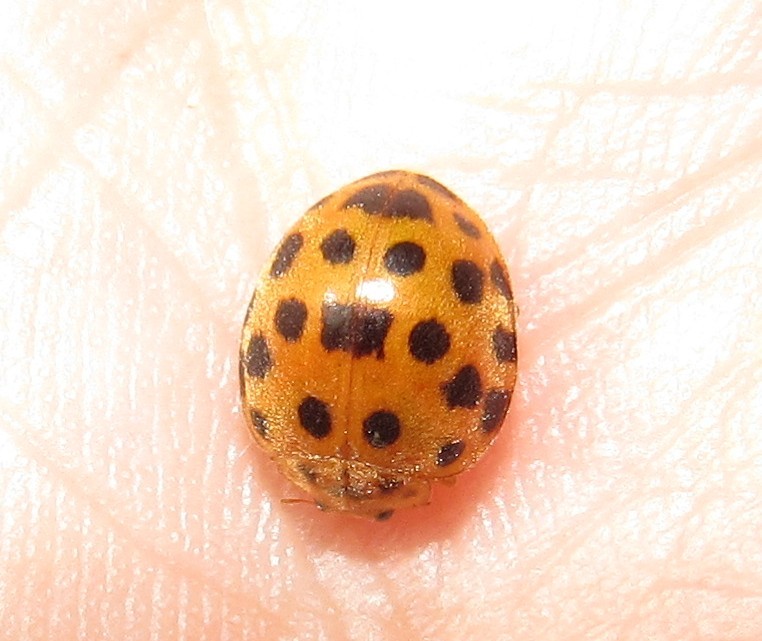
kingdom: Animalia
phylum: Arthropoda
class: Insecta
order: Coleoptera
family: Coccinellidae
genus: Henosepilachna
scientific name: Henosepilachna vigintioctopunctata
